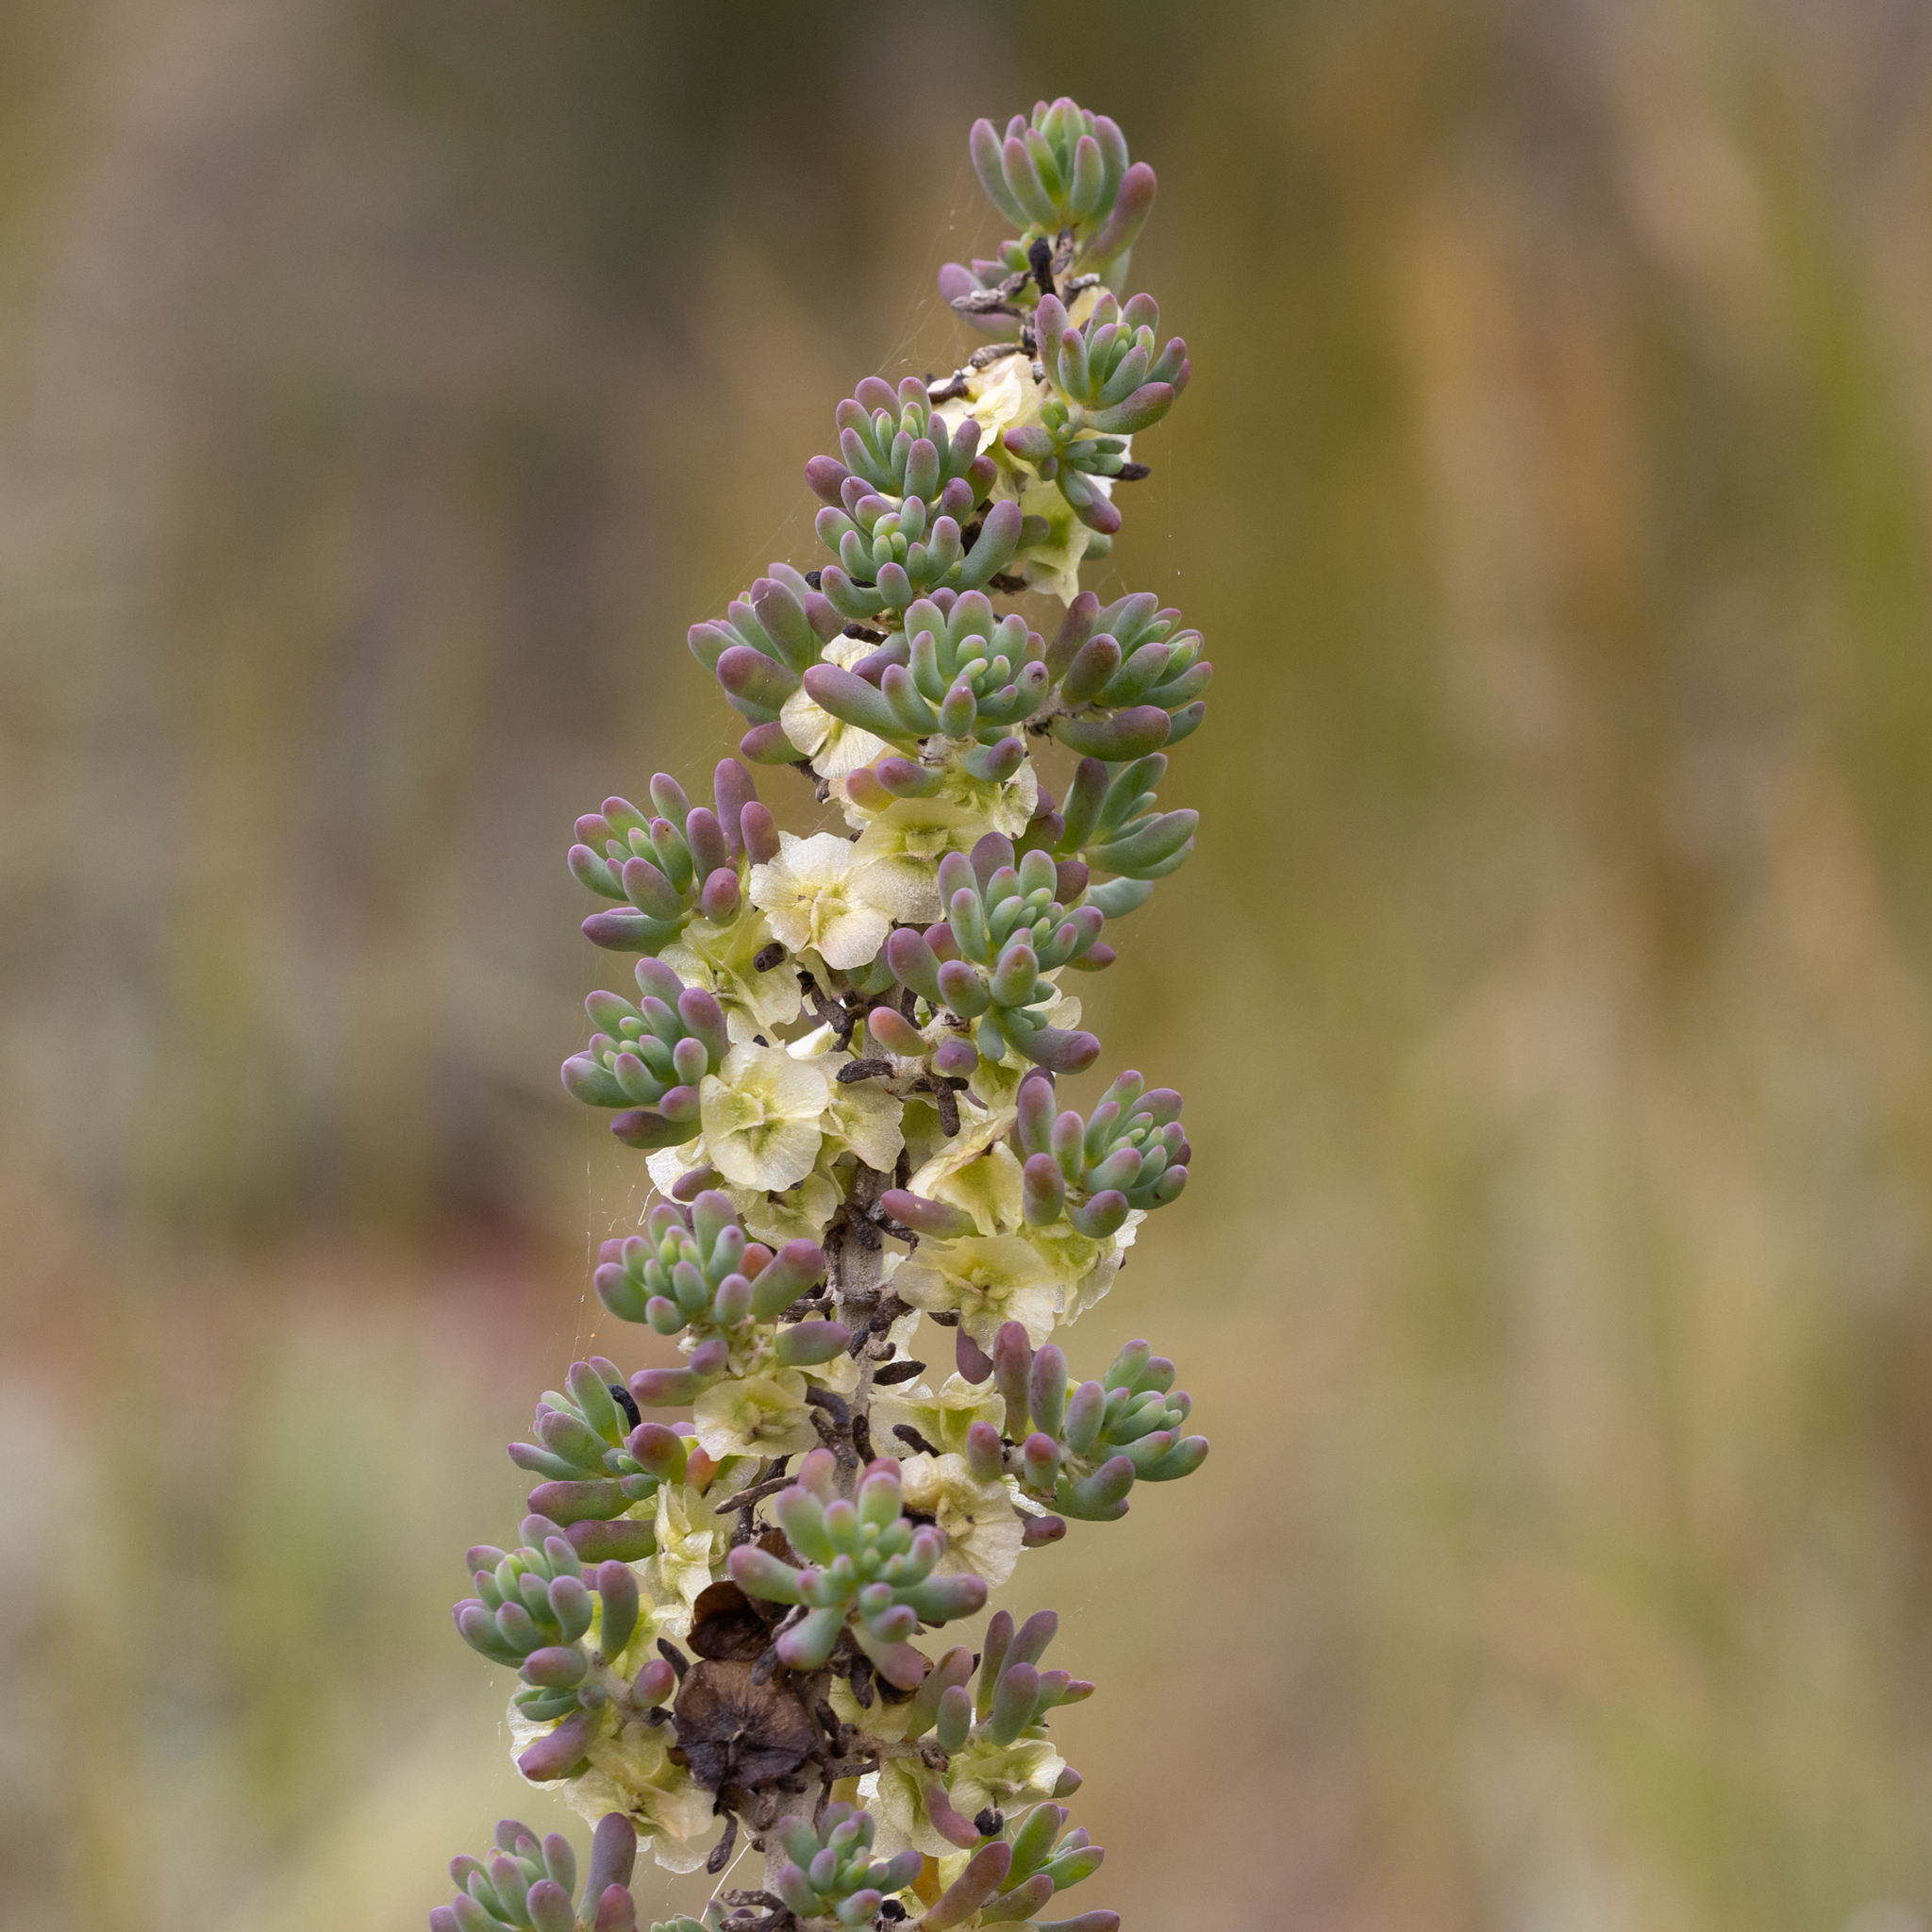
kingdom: Plantae
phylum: Tracheophyta
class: Magnoliopsida
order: Caryophyllales
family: Amaranthaceae
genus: Maireana
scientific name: Maireana pentatropis
